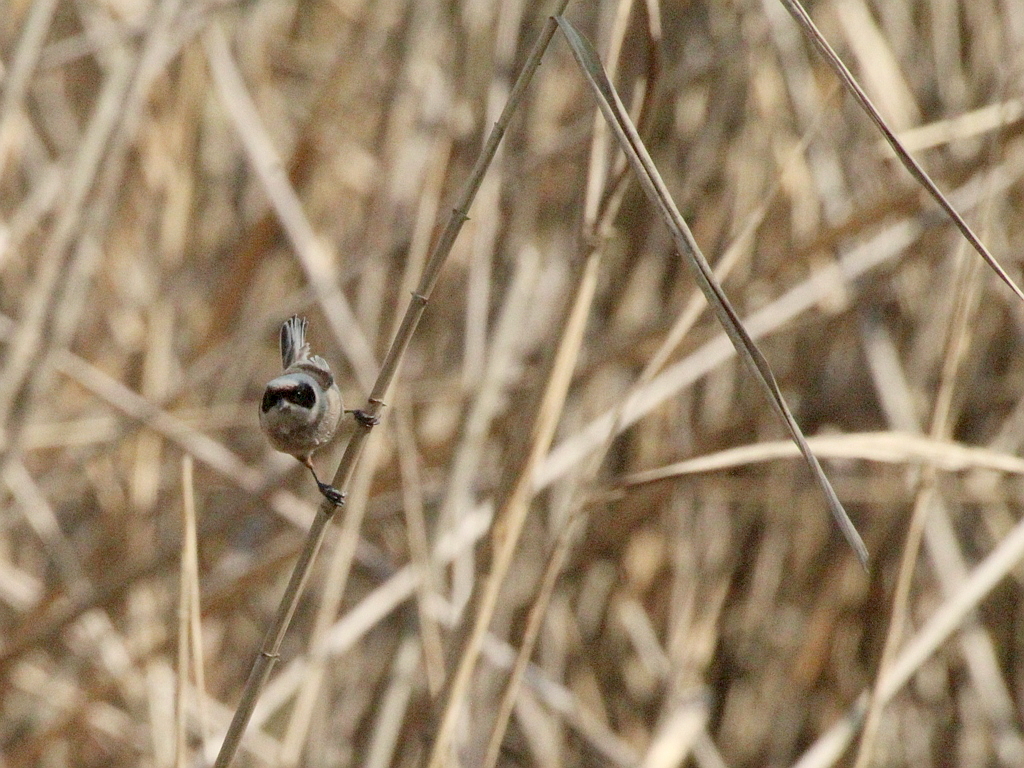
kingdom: Animalia
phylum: Chordata
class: Aves
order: Passeriformes
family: Remizidae
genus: Remiz
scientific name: Remiz pendulinus
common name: Eurasian penduline tit
